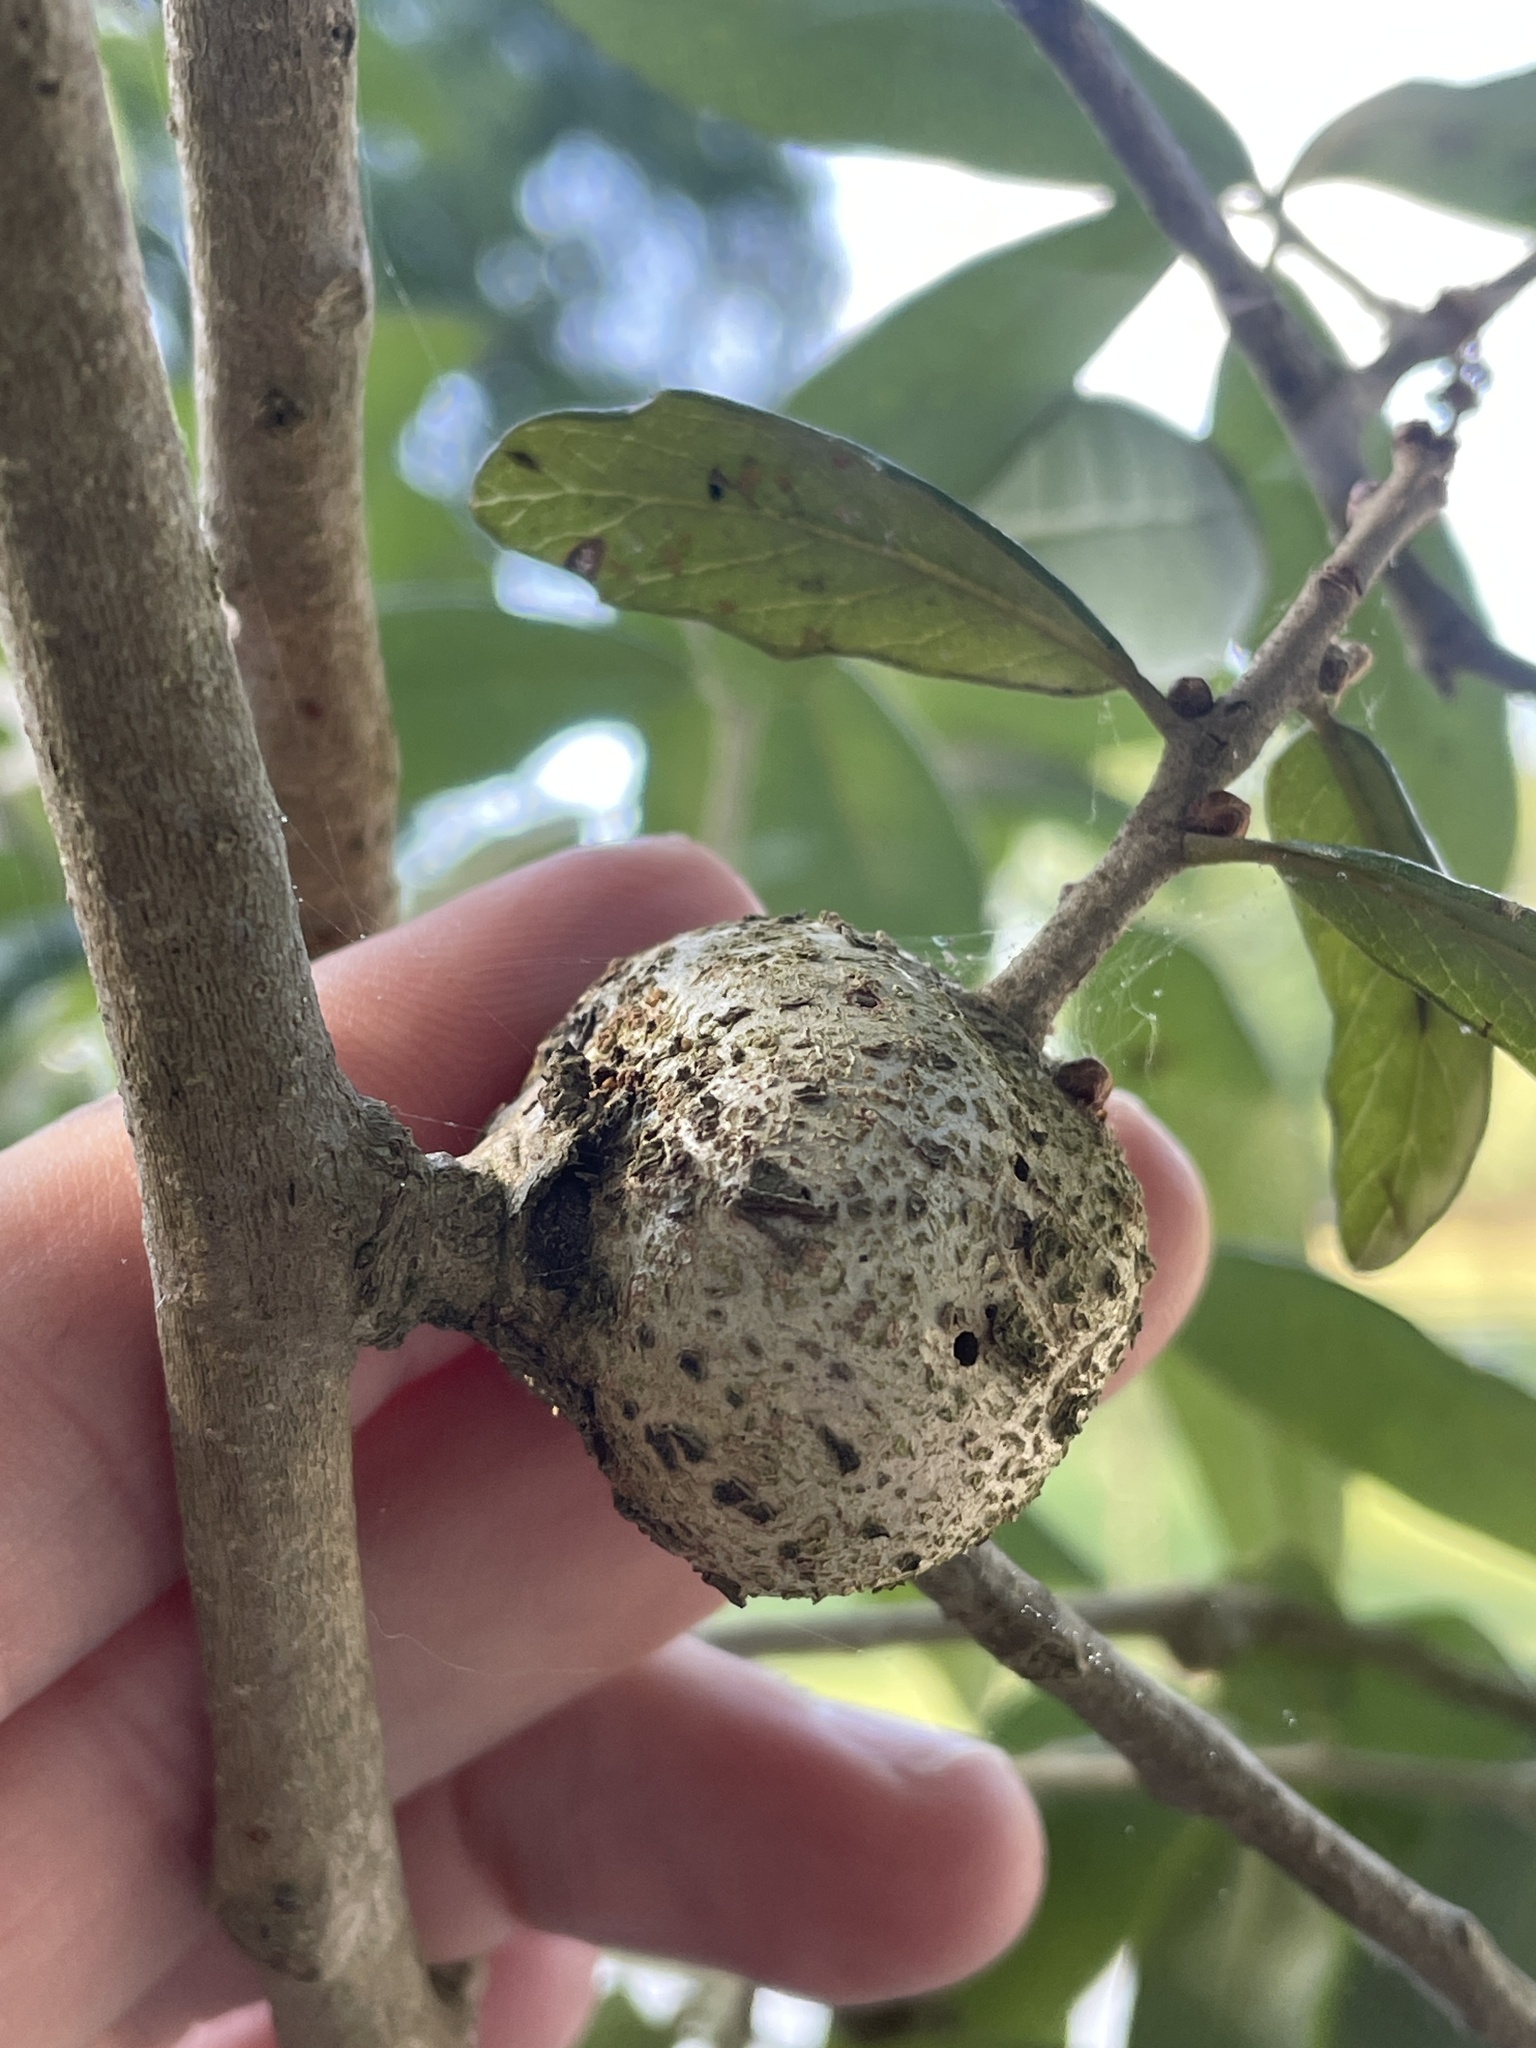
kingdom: Animalia
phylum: Arthropoda
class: Insecta
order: Hymenoptera
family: Cynipidae
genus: Callirhytis
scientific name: Callirhytis
